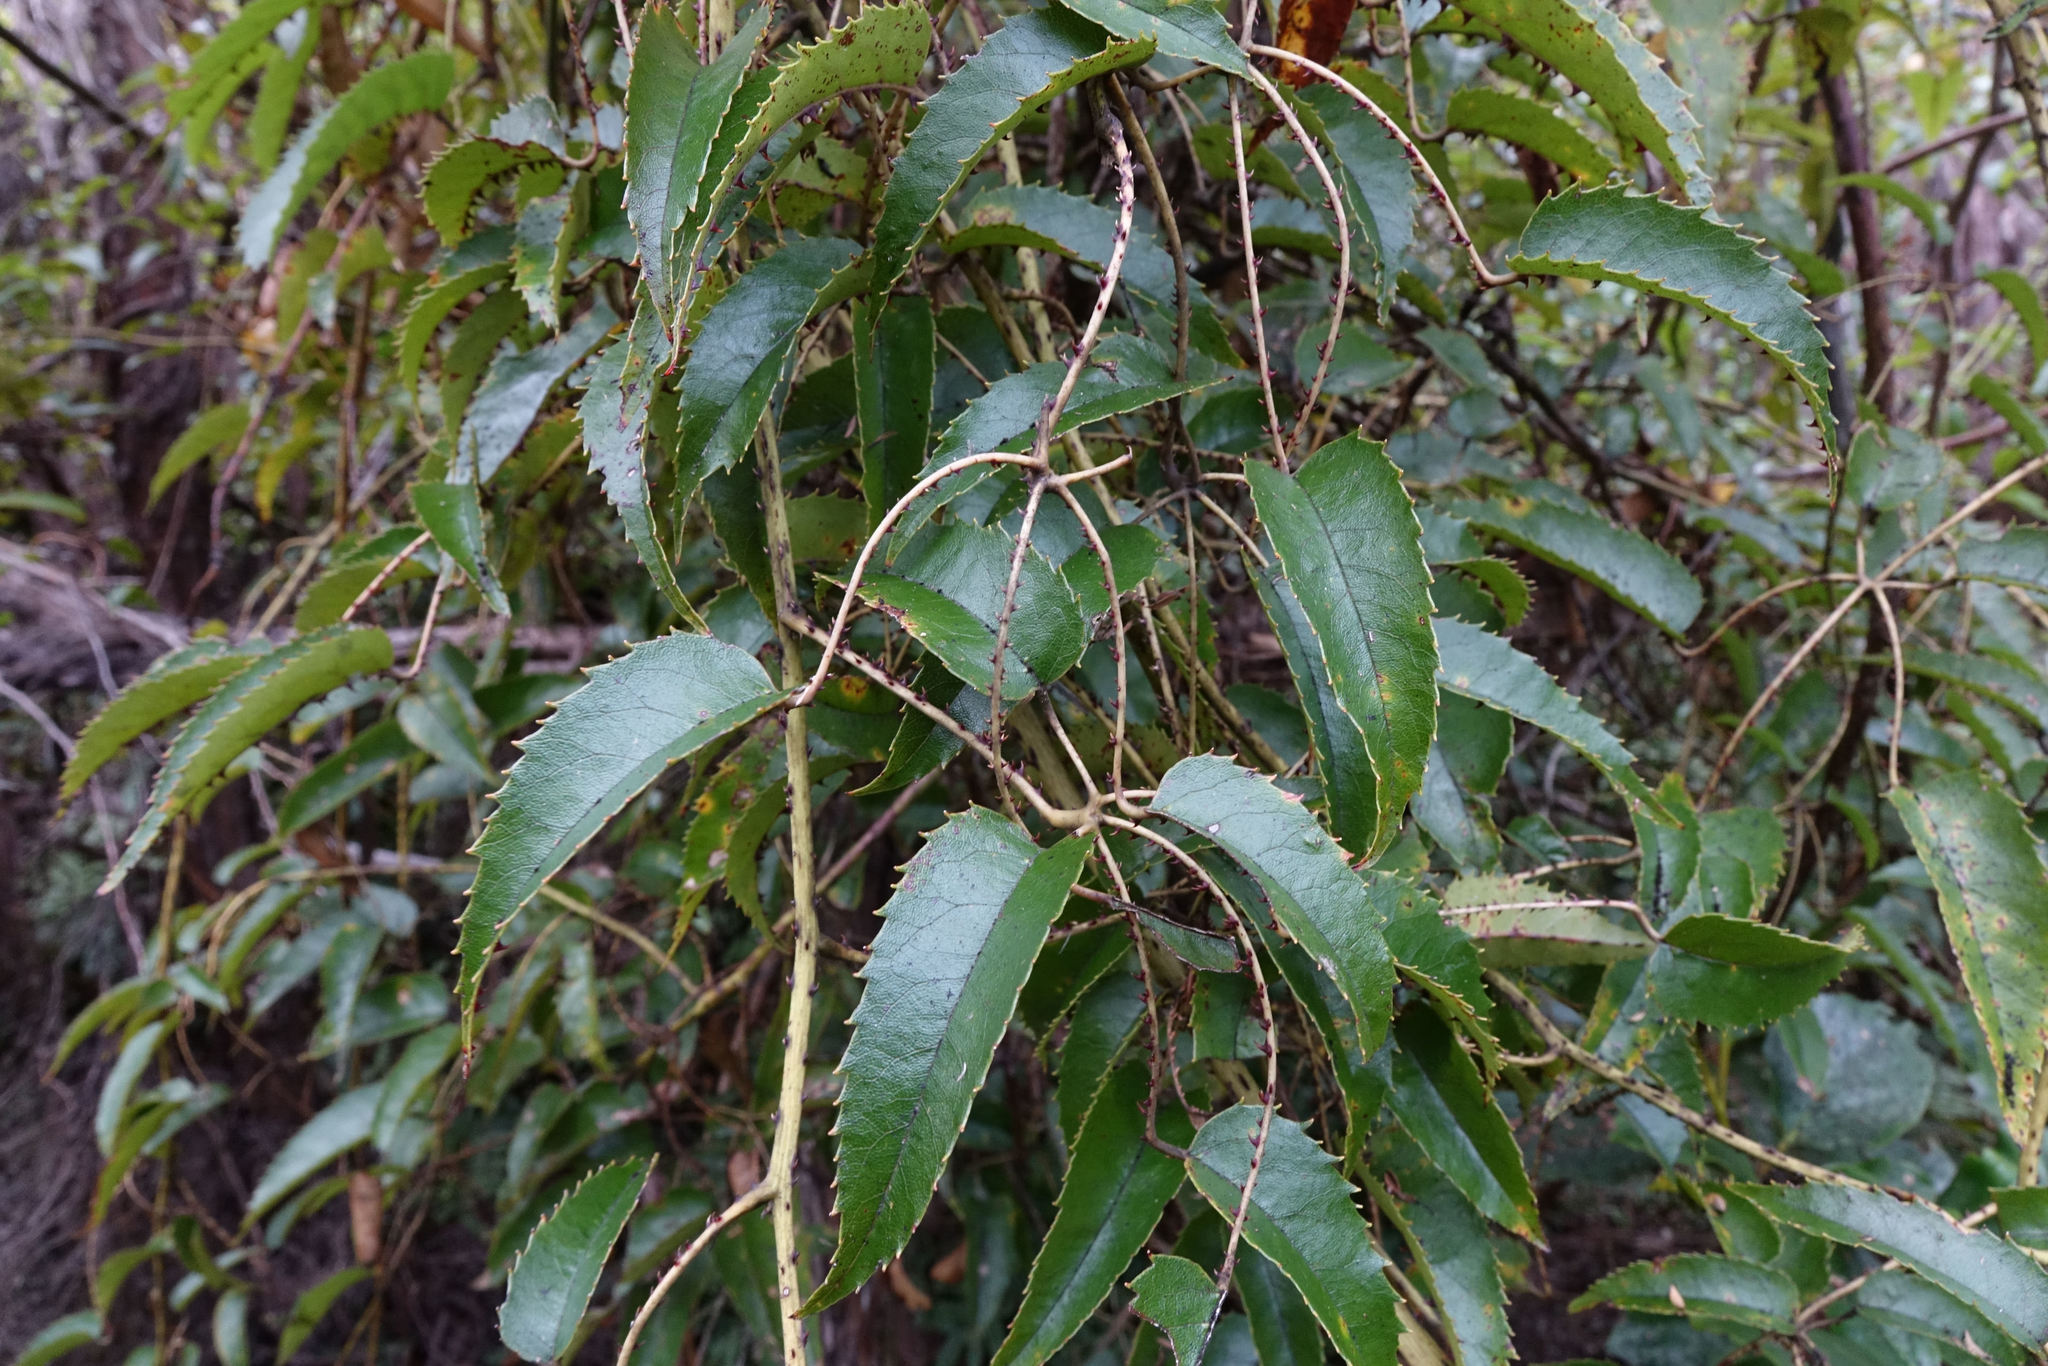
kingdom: Plantae
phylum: Tracheophyta
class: Magnoliopsida
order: Rosales
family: Rosaceae
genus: Rubus
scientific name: Rubus cissoides
